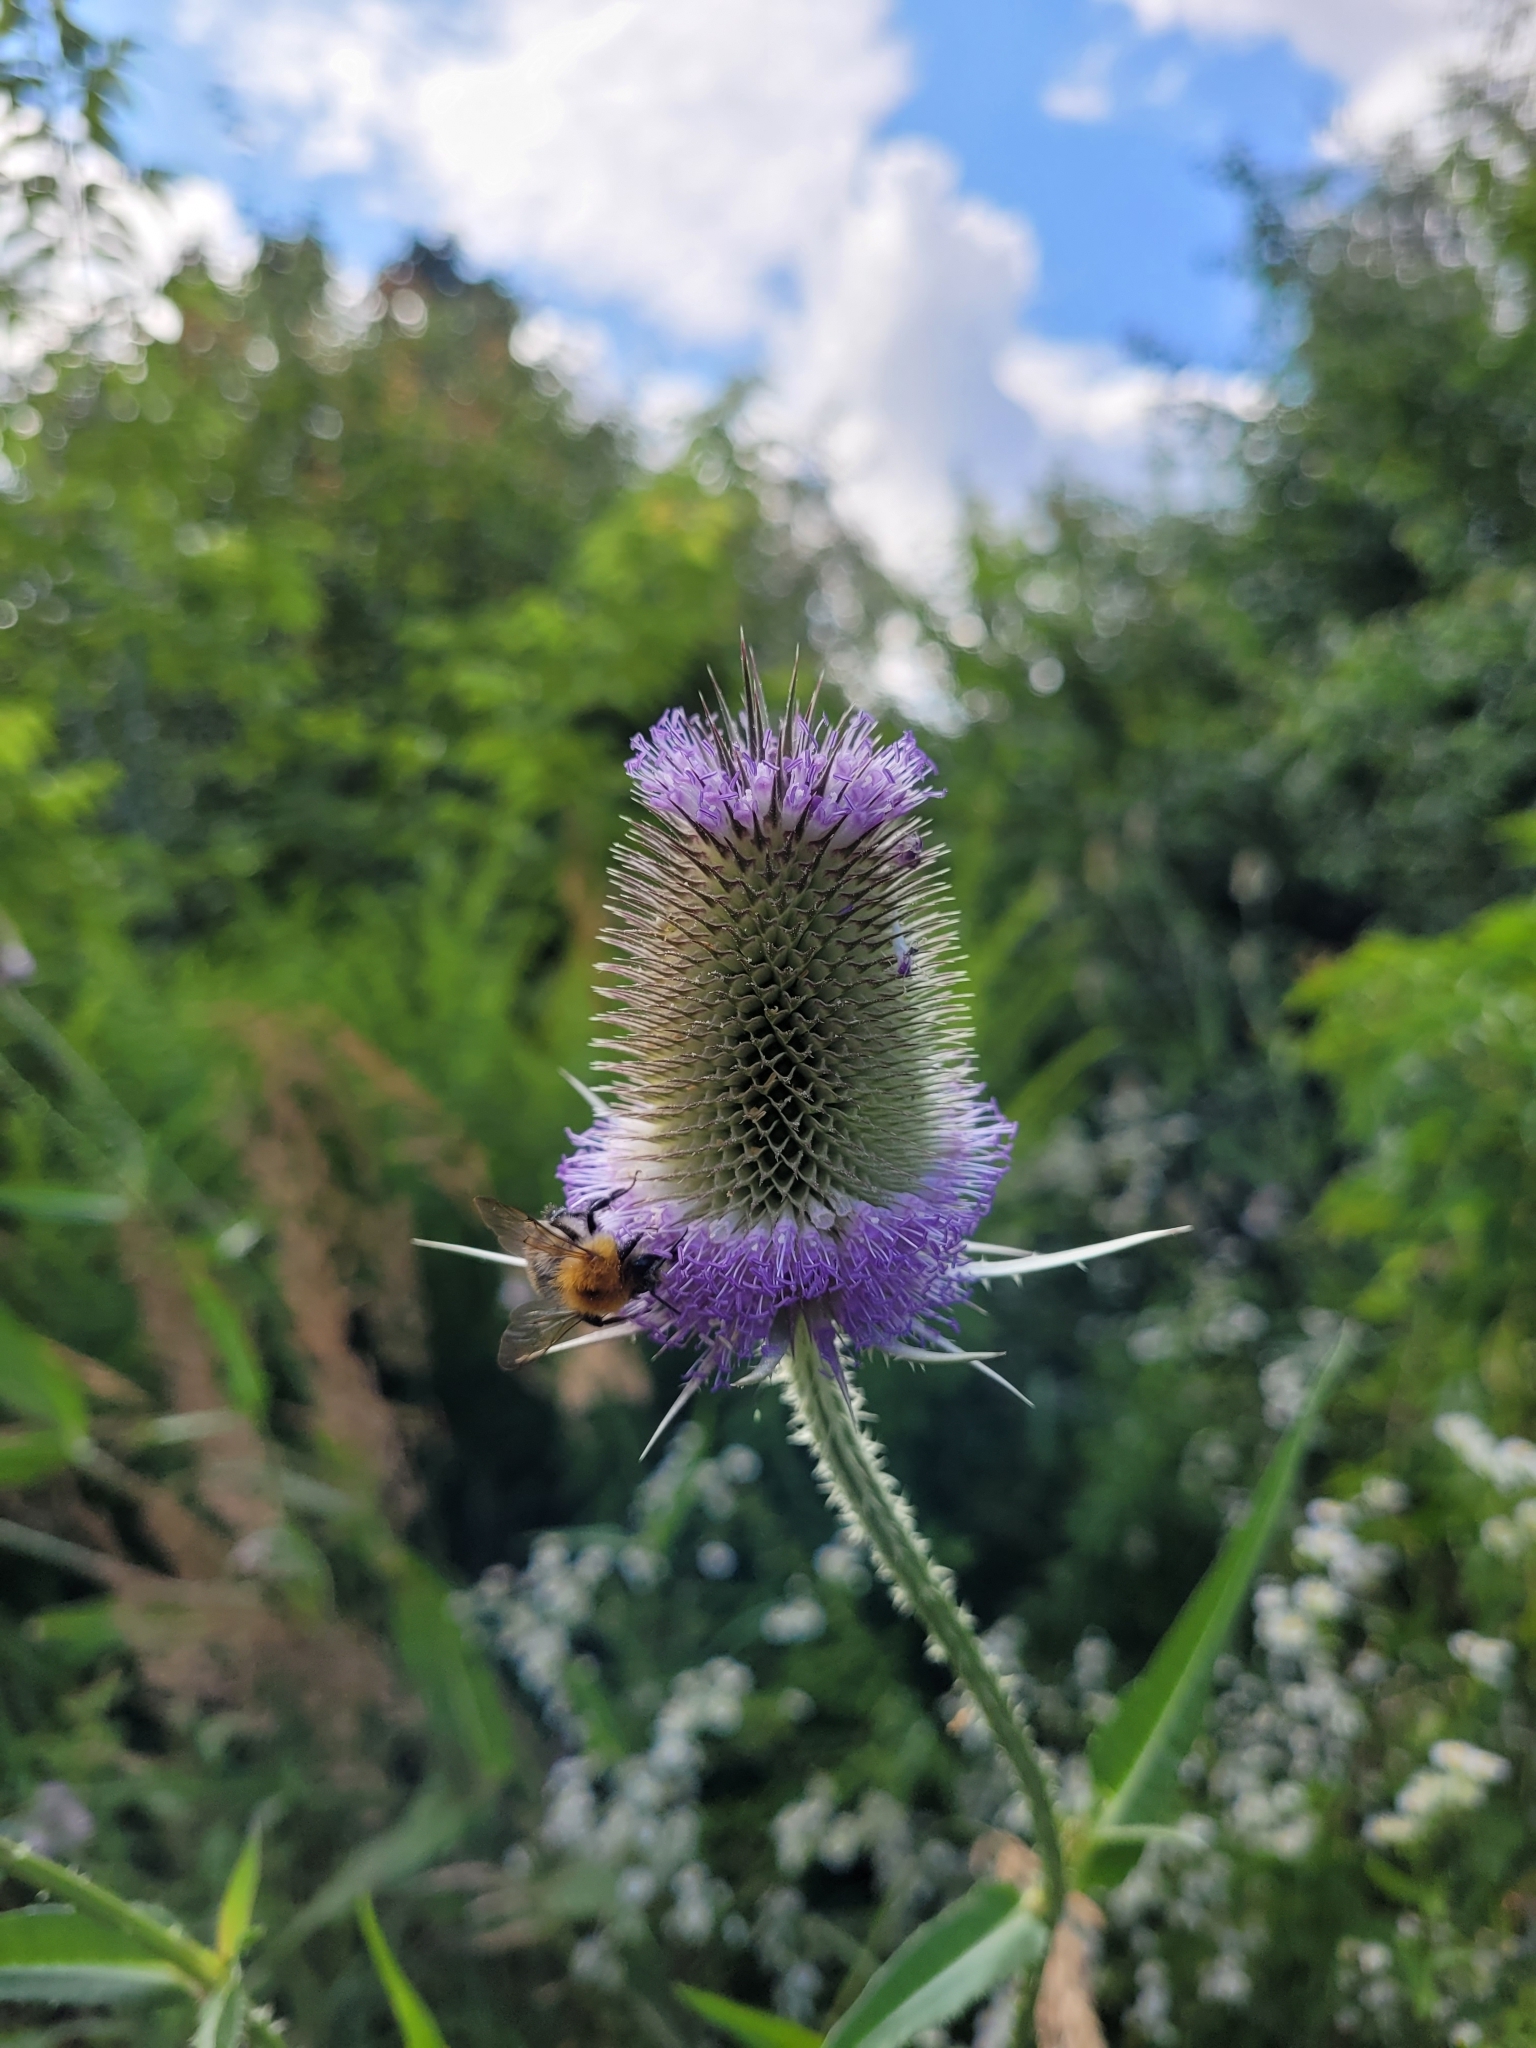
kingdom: Plantae
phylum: Tracheophyta
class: Magnoliopsida
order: Dipsacales
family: Caprifoliaceae
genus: Dipsacus
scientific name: Dipsacus fullonum
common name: Teasel
